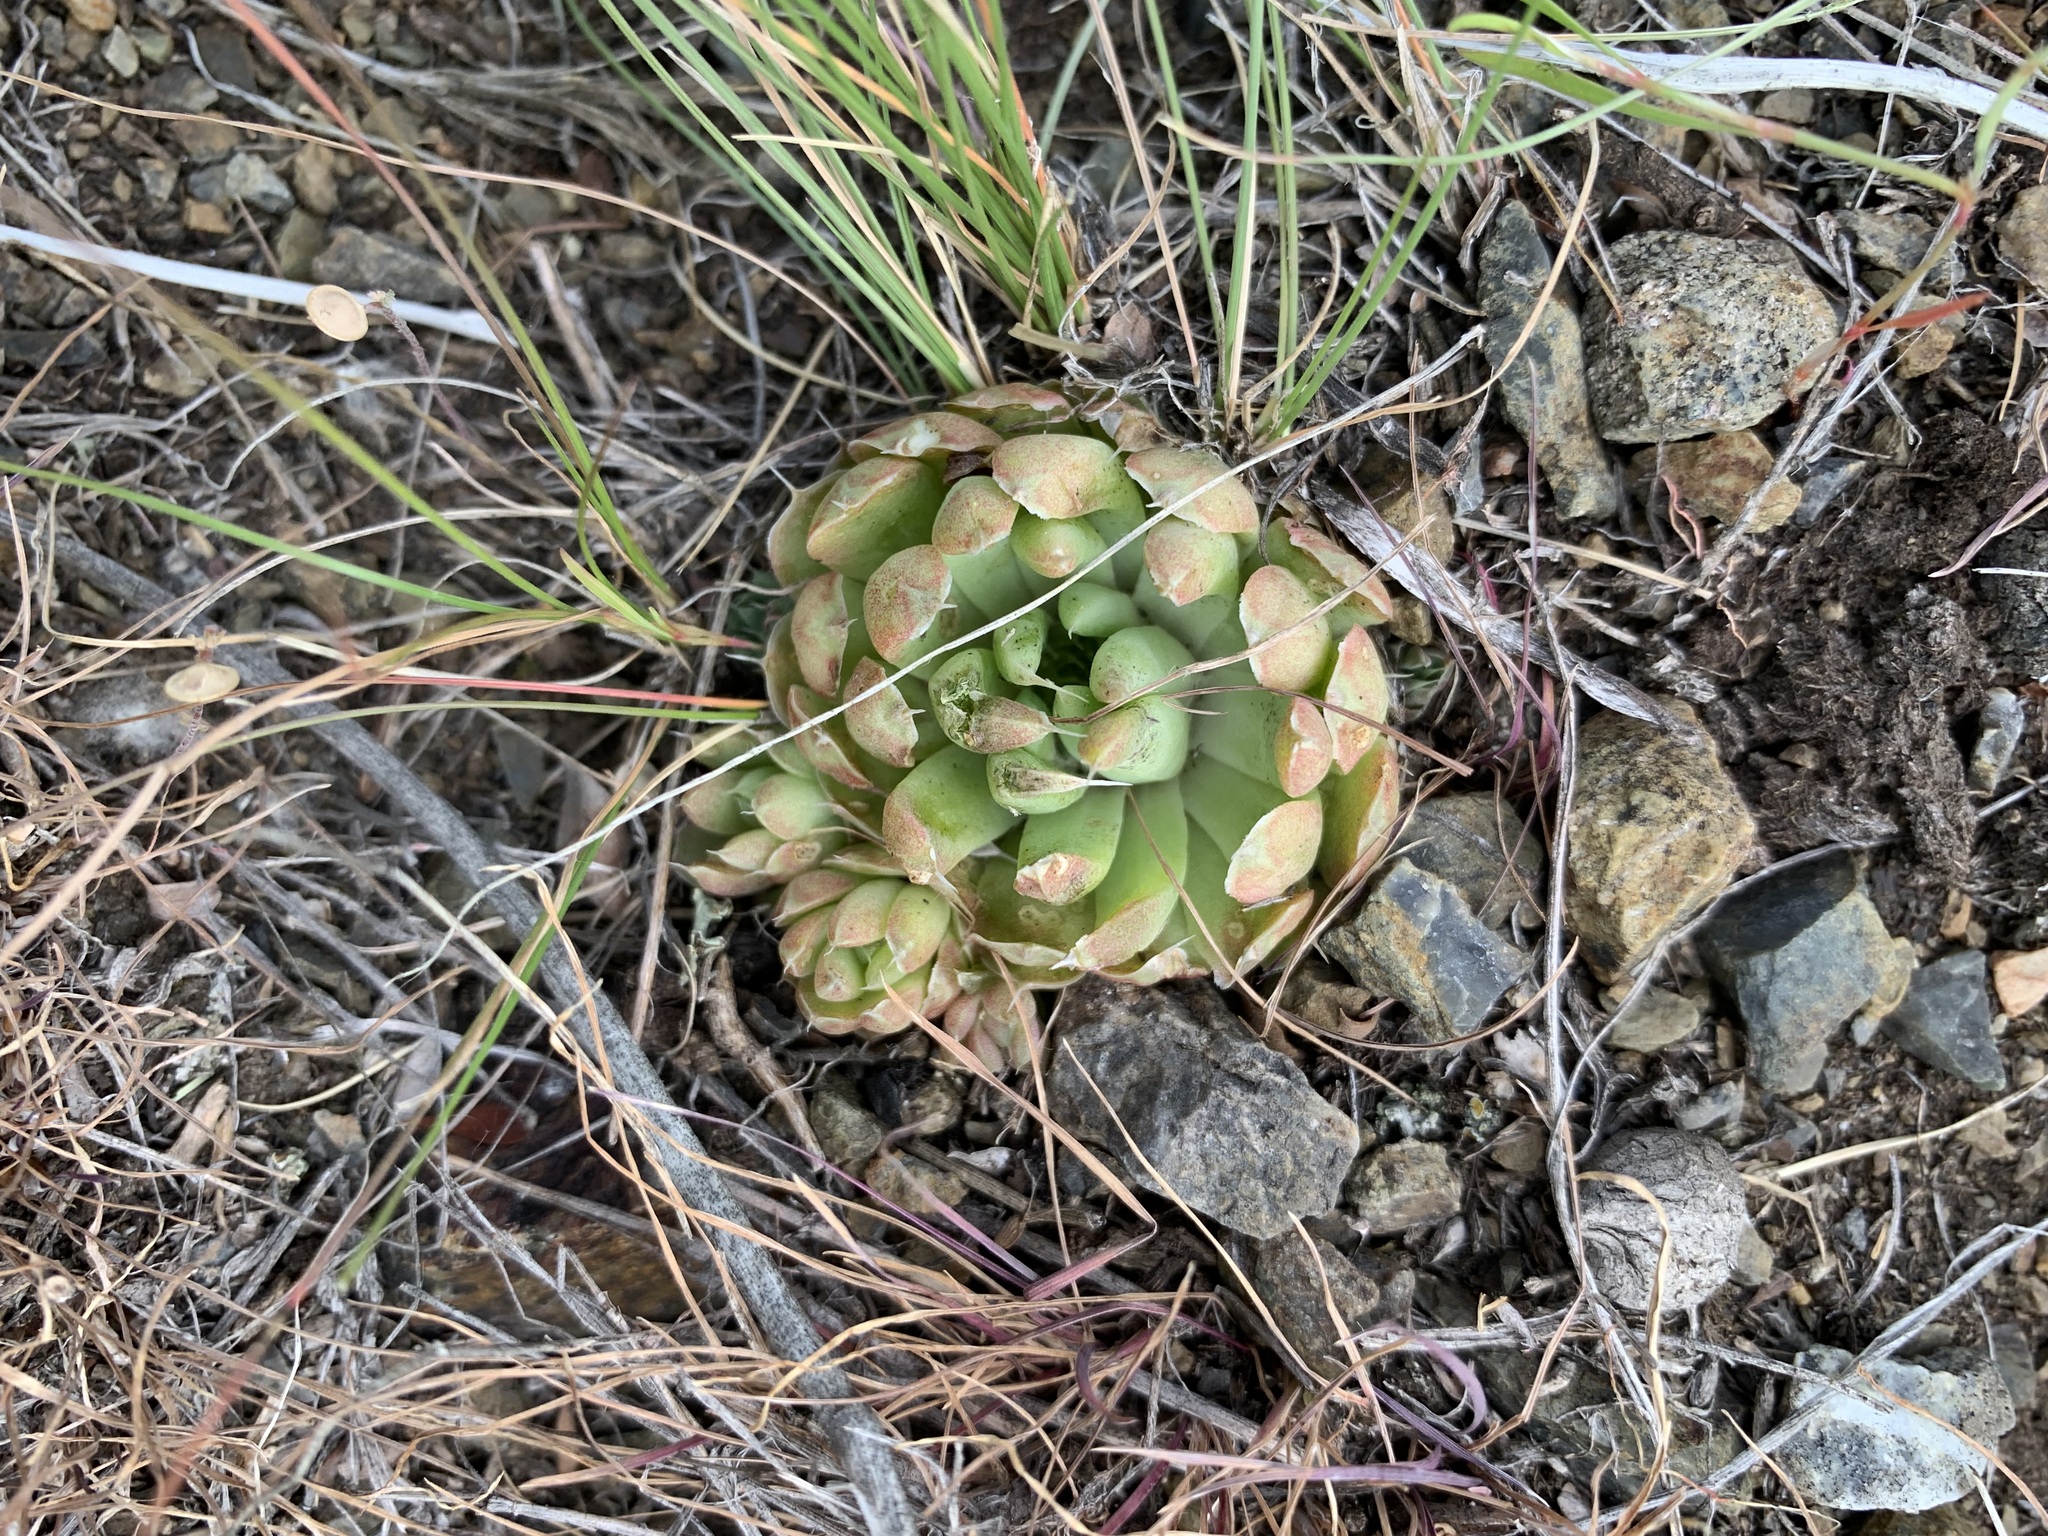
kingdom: Plantae
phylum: Tracheophyta
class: Magnoliopsida
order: Saxifragales
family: Crassulaceae
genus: Orostachys
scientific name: Orostachys spinosa
